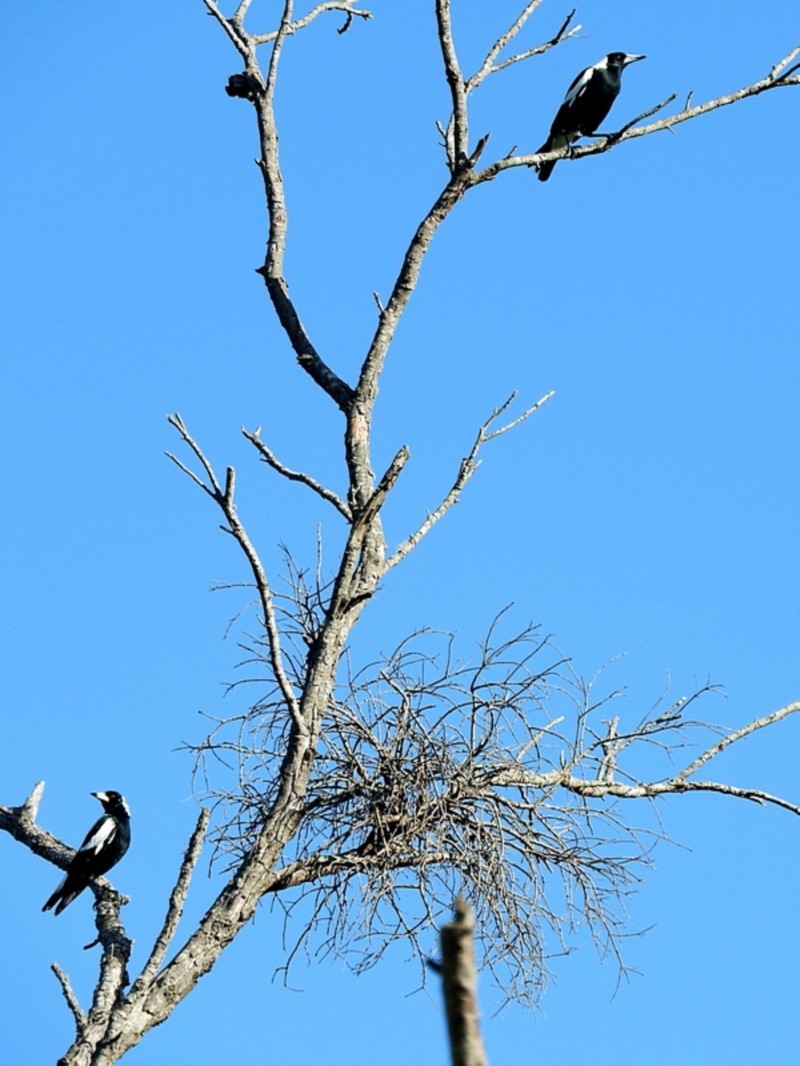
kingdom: Animalia
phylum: Chordata
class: Aves
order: Passeriformes
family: Cracticidae
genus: Gymnorhina
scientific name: Gymnorhina tibicen
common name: Australian magpie
